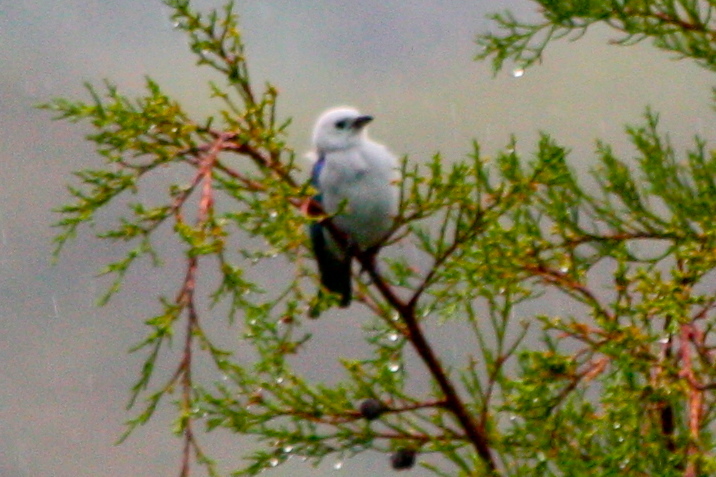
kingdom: Animalia
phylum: Chordata
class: Aves
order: Passeriformes
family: Thraupidae
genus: Thraupis
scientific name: Thraupis episcopus
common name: Blue-grey tanager
